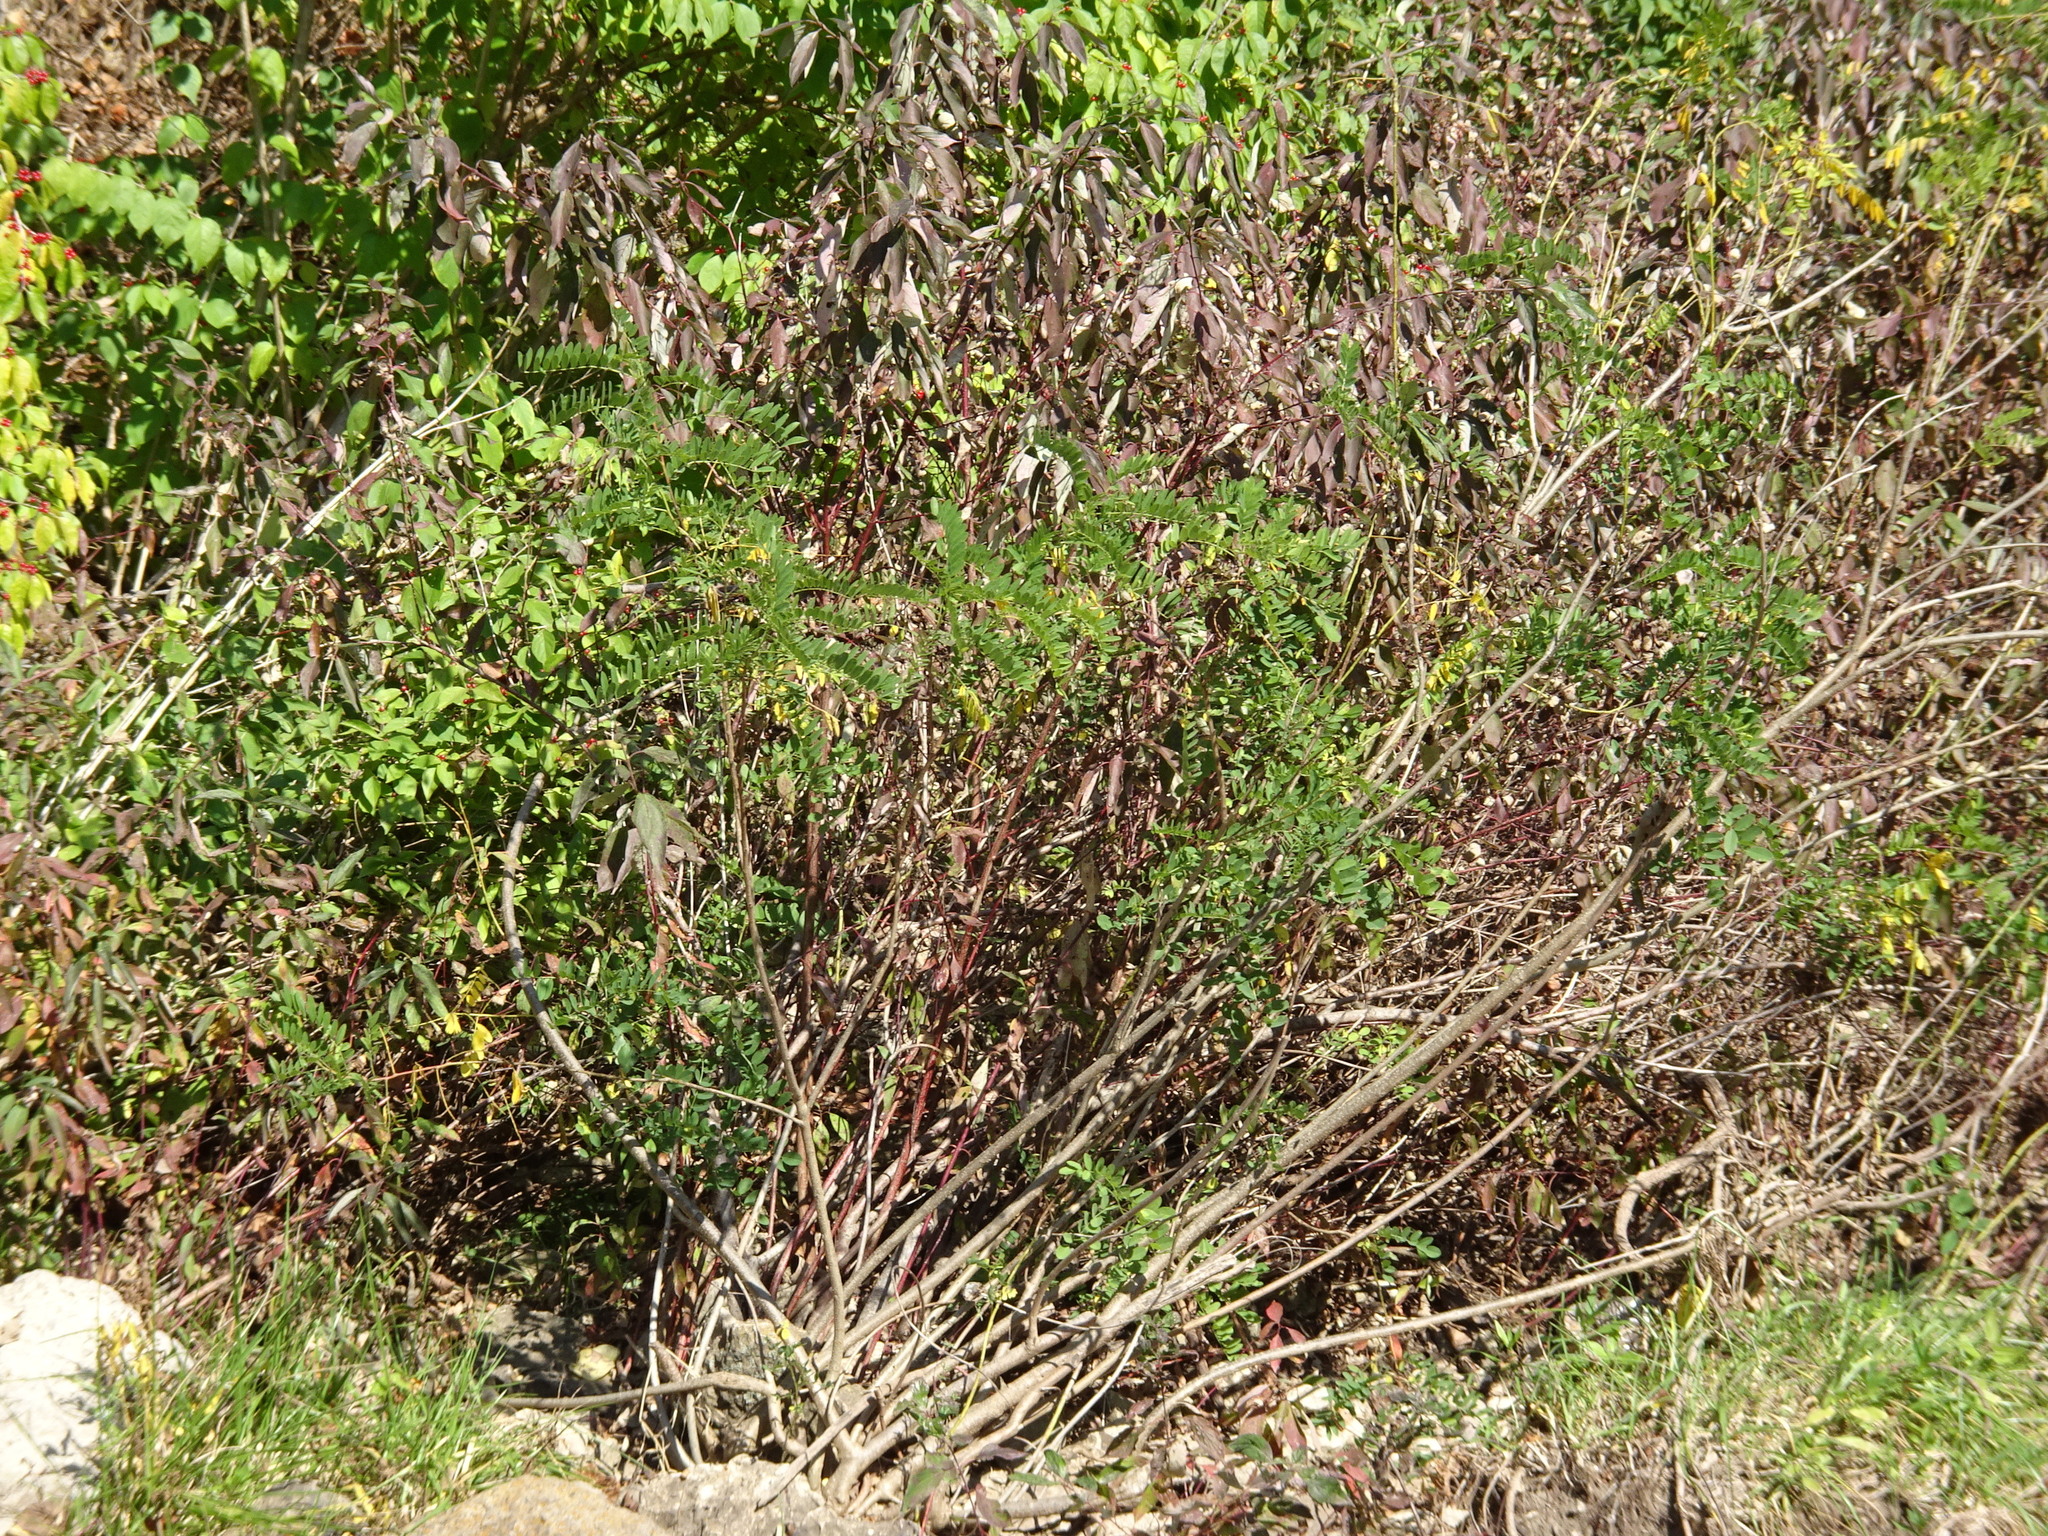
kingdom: Plantae
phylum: Tracheophyta
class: Magnoliopsida
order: Fabales
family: Fabaceae
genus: Amorpha
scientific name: Amorpha fruticosa
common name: False indigo
